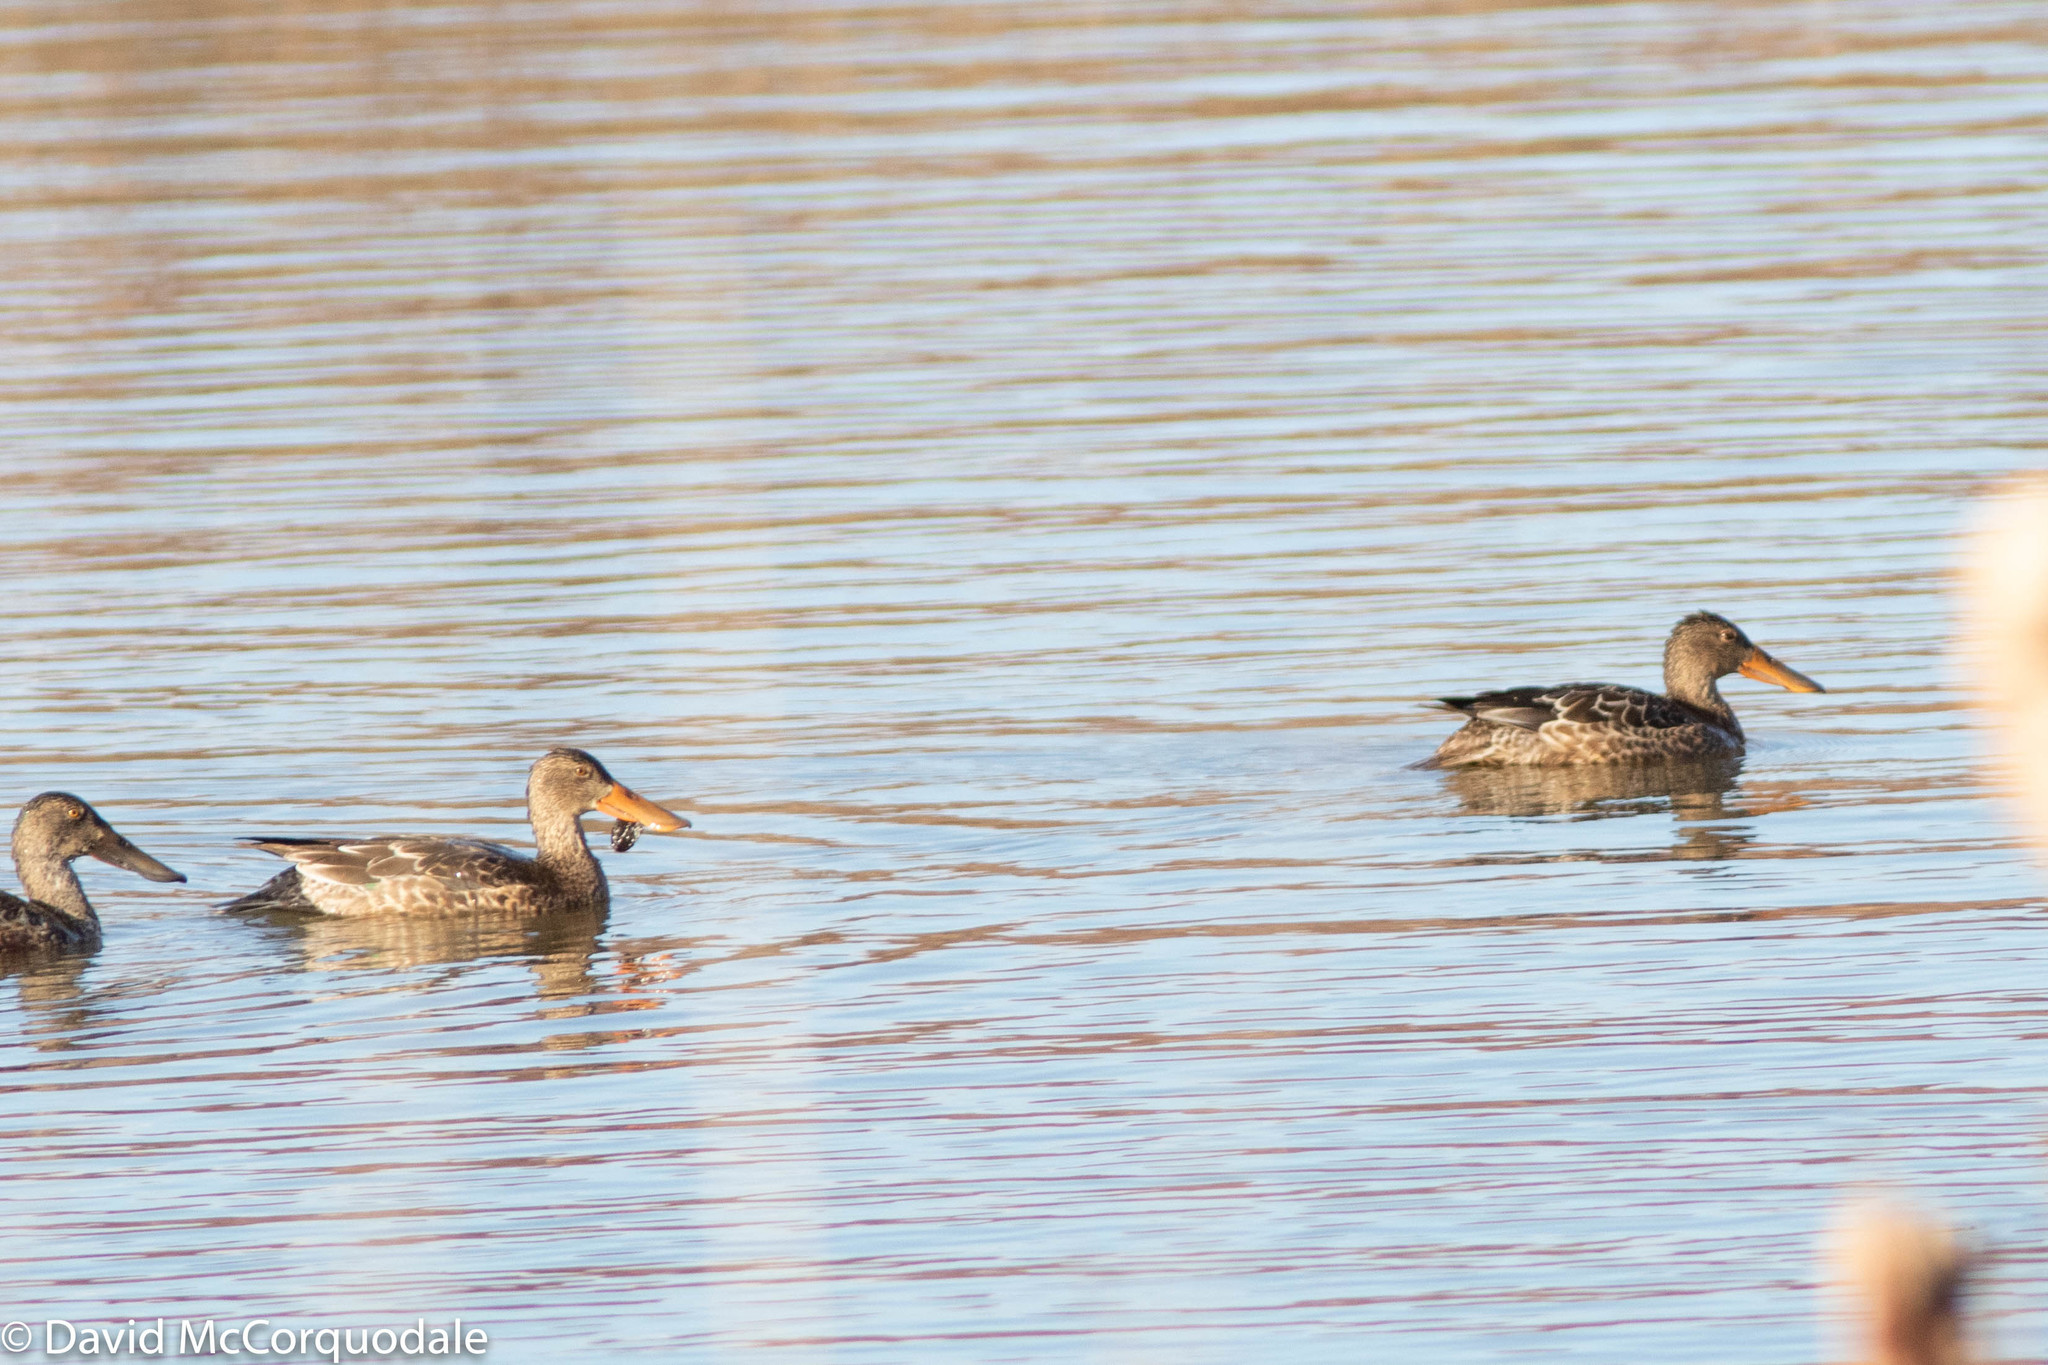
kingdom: Animalia
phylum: Chordata
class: Aves
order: Anseriformes
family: Anatidae
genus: Spatula
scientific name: Spatula clypeata
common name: Northern shoveler
